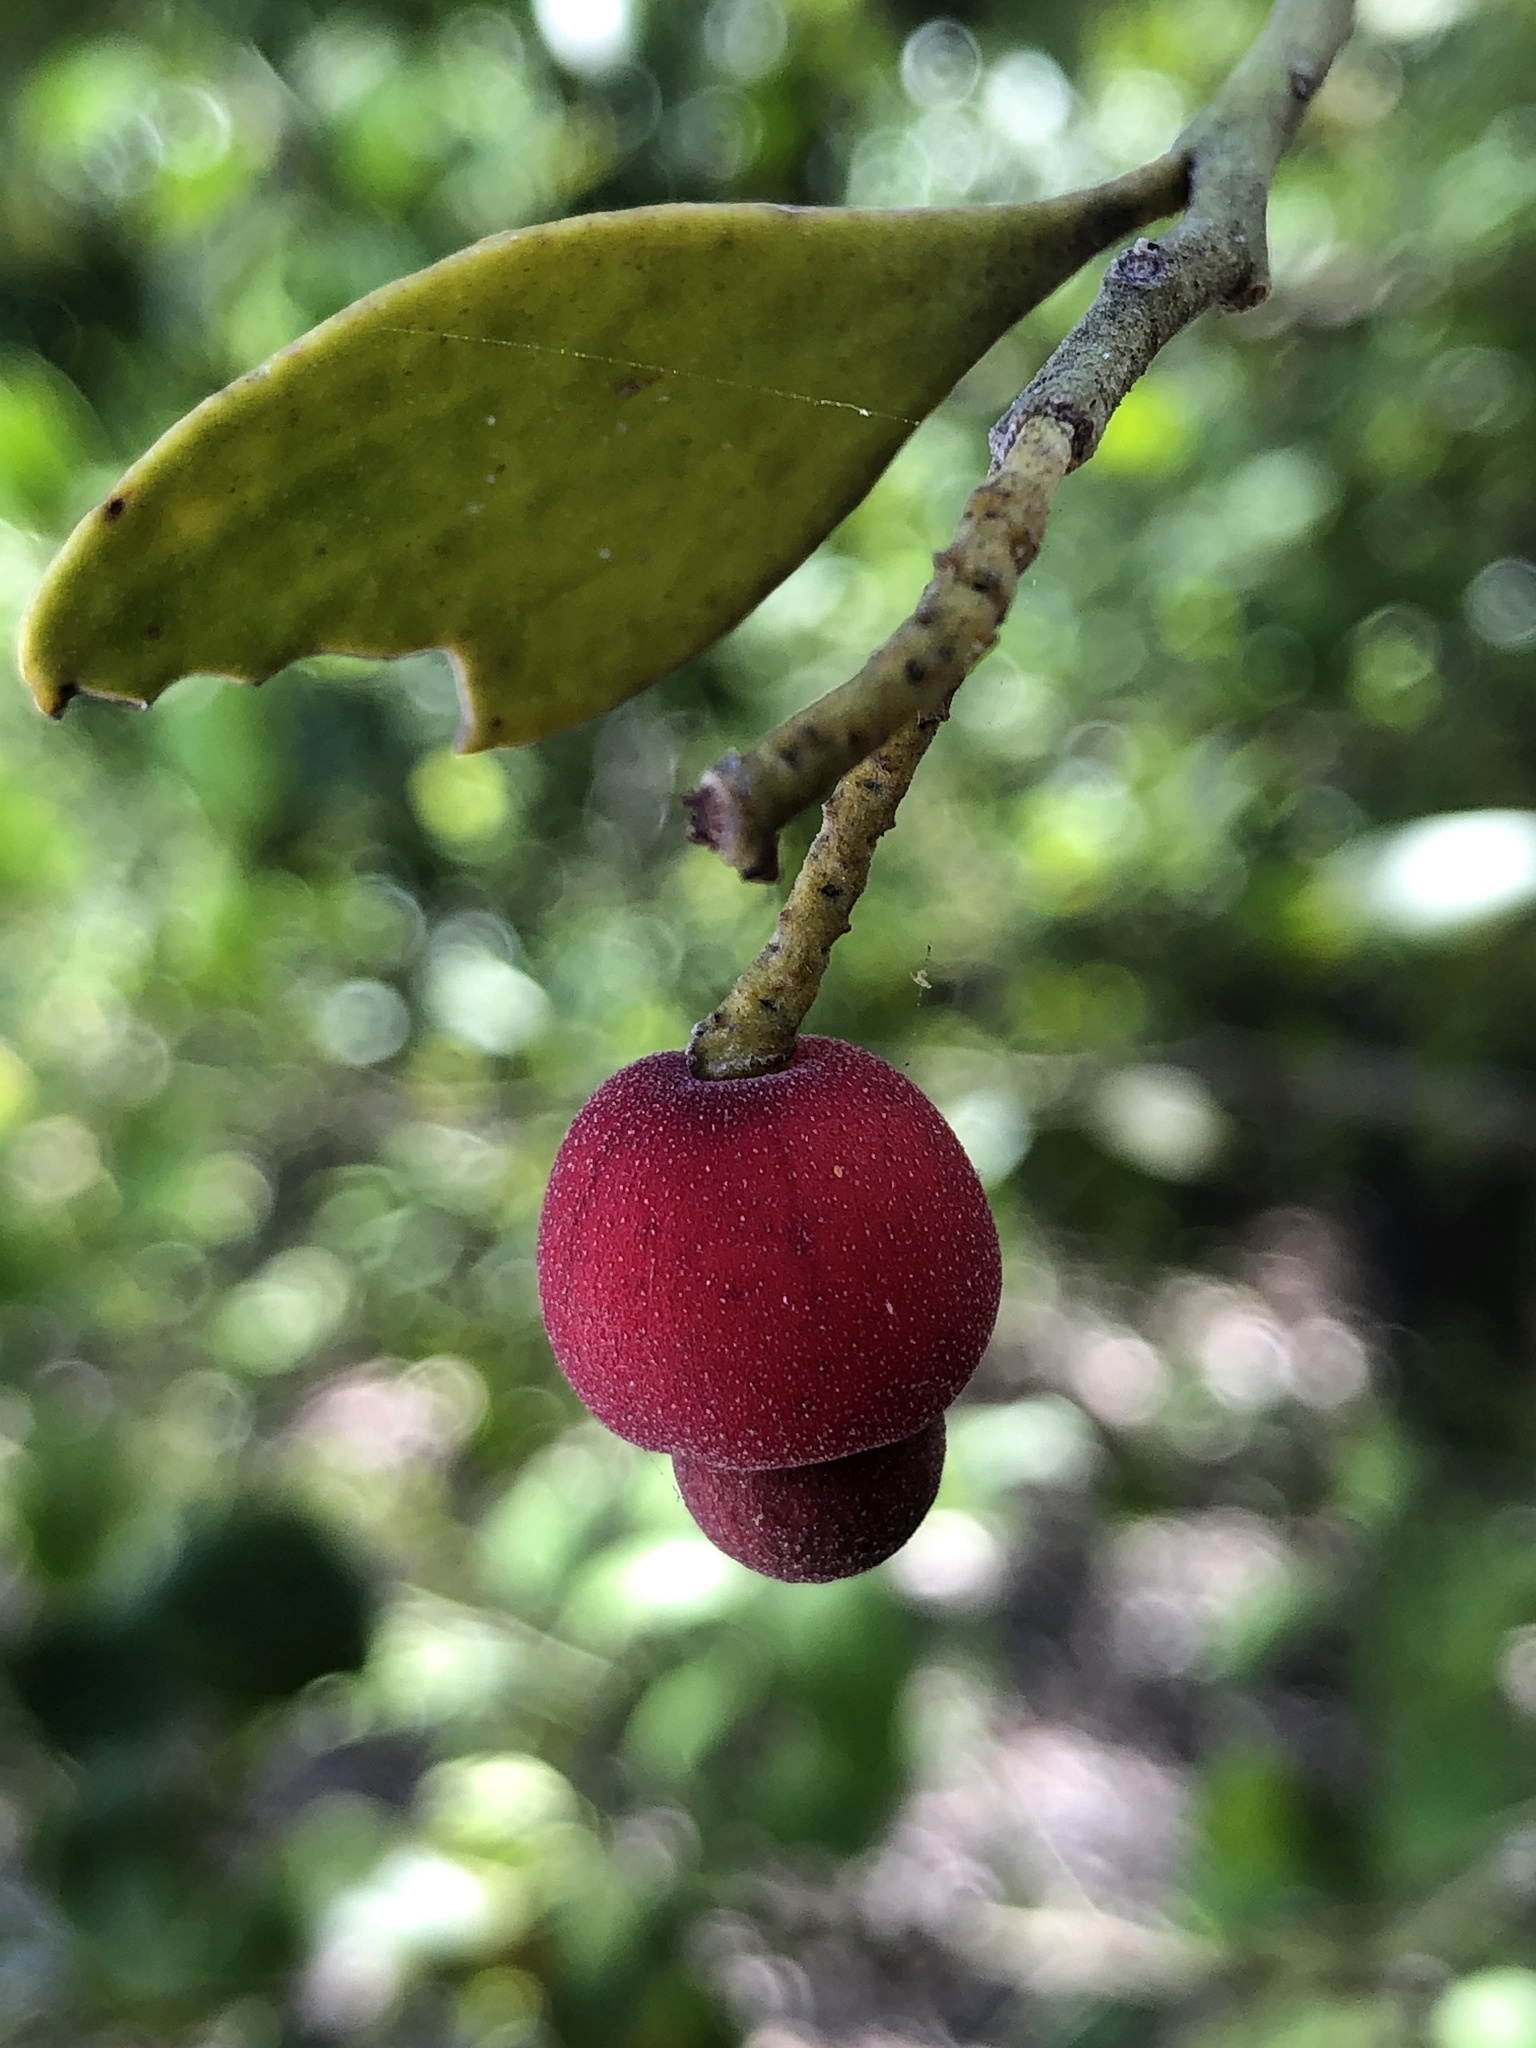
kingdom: Plantae
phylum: Tracheophyta
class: Magnoliopsida
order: Santalales
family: Santalaceae
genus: Exocarpos
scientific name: Exocarpos latifolius
